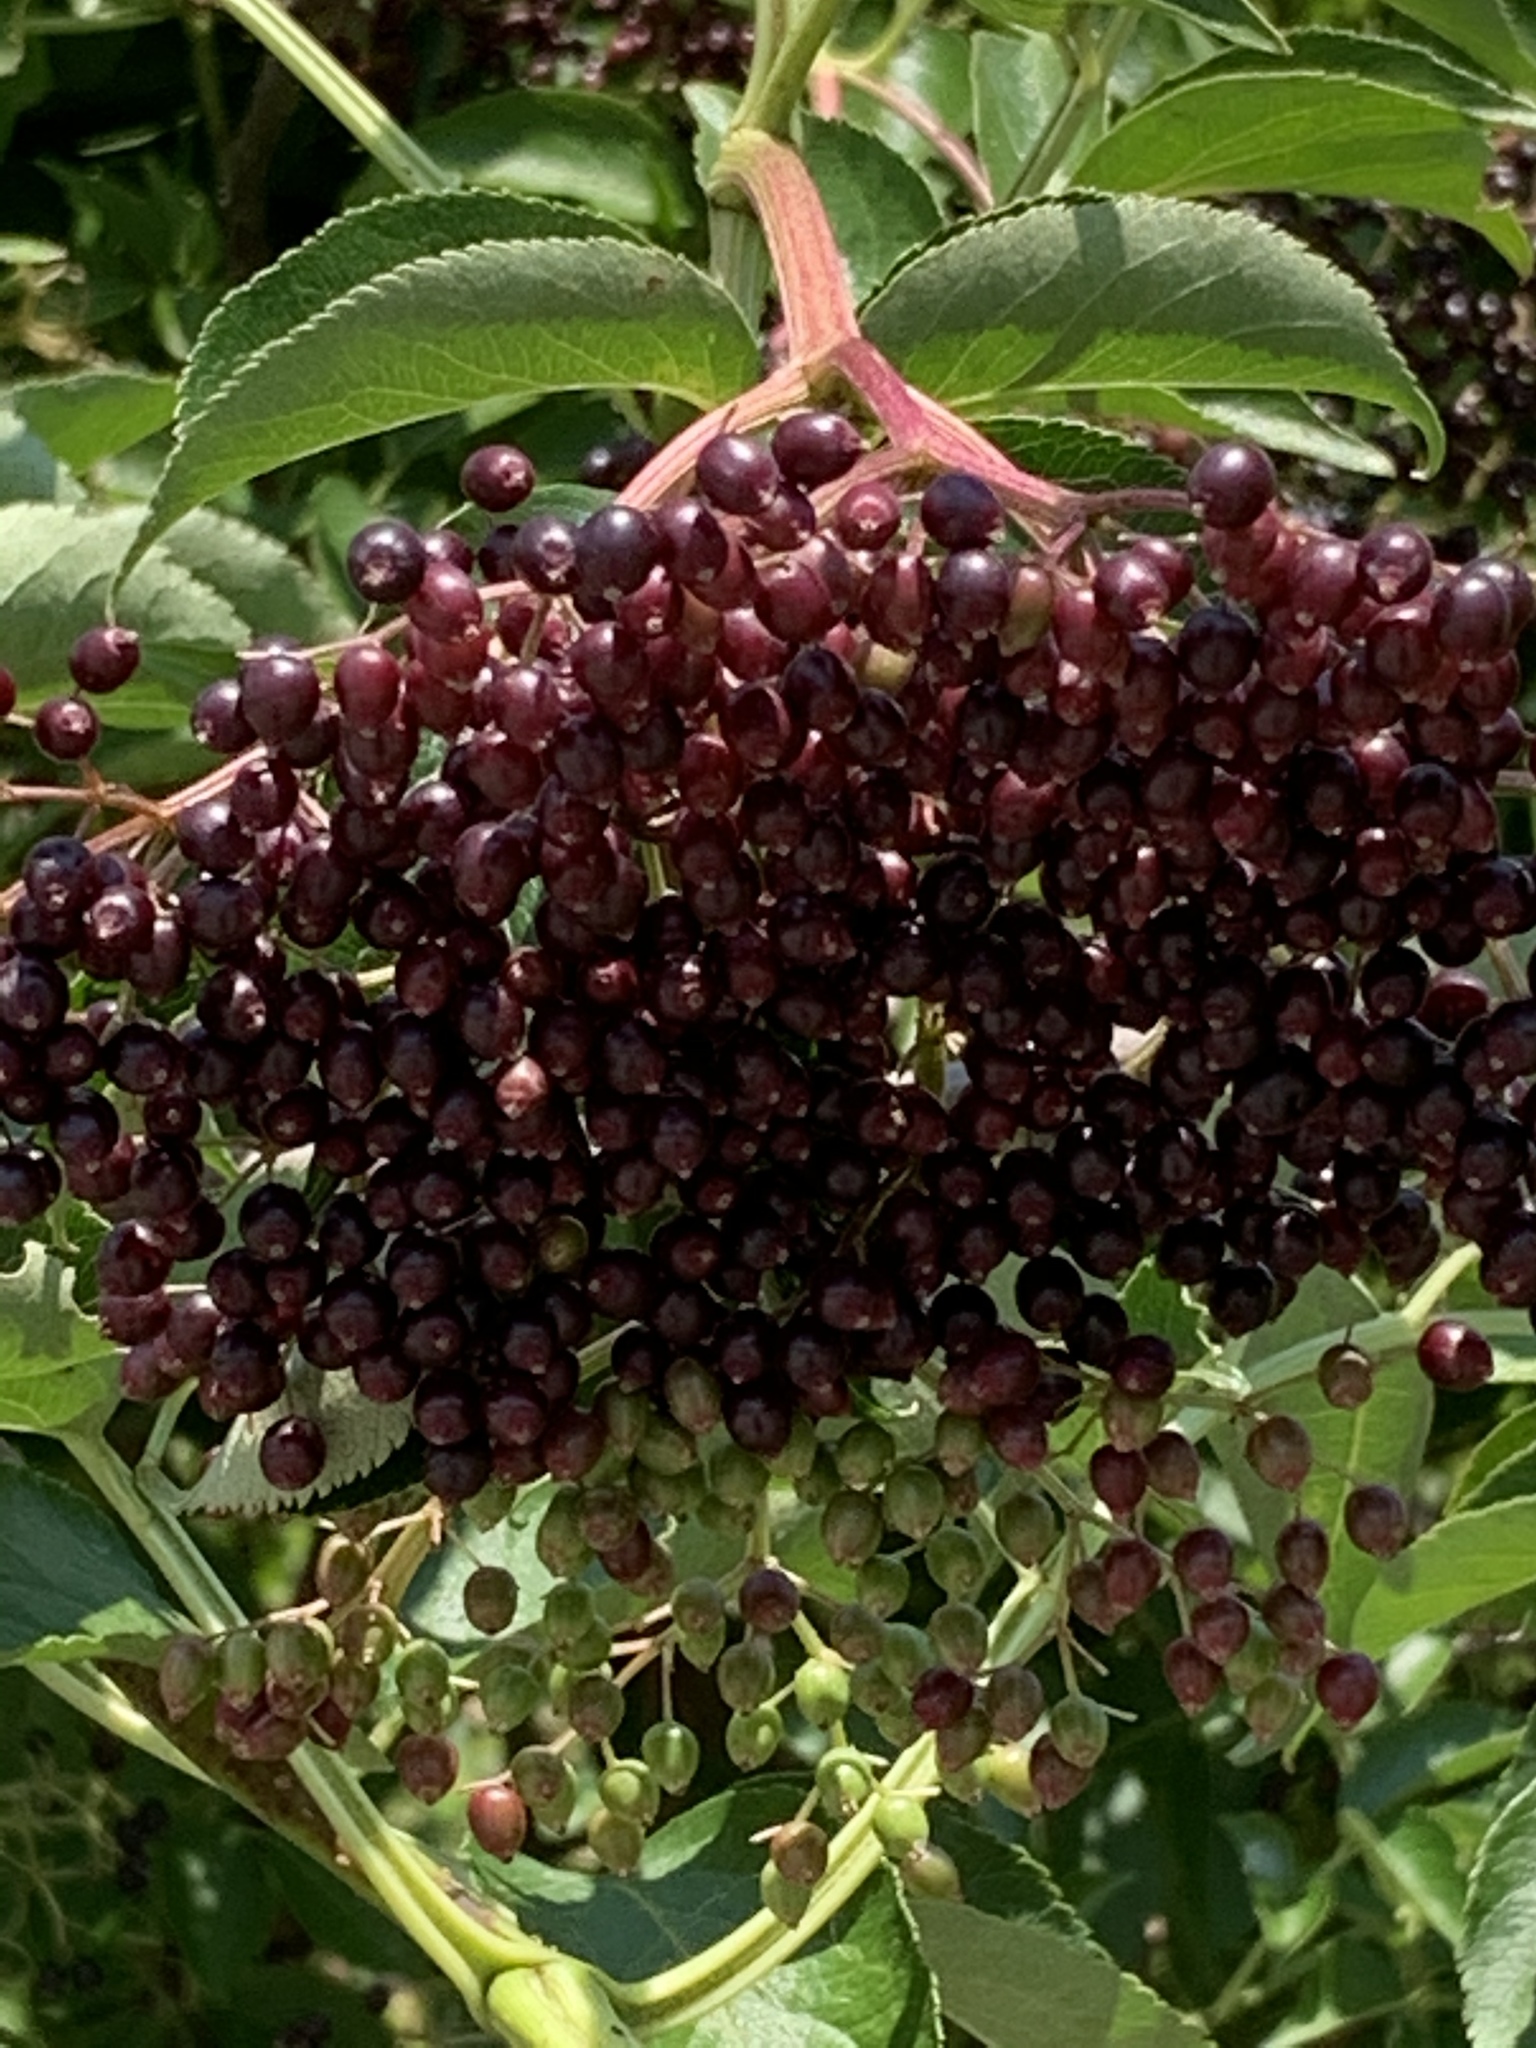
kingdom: Plantae
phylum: Tracheophyta
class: Magnoliopsida
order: Dipsacales
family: Viburnaceae
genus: Sambucus
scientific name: Sambucus canadensis
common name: American elder
